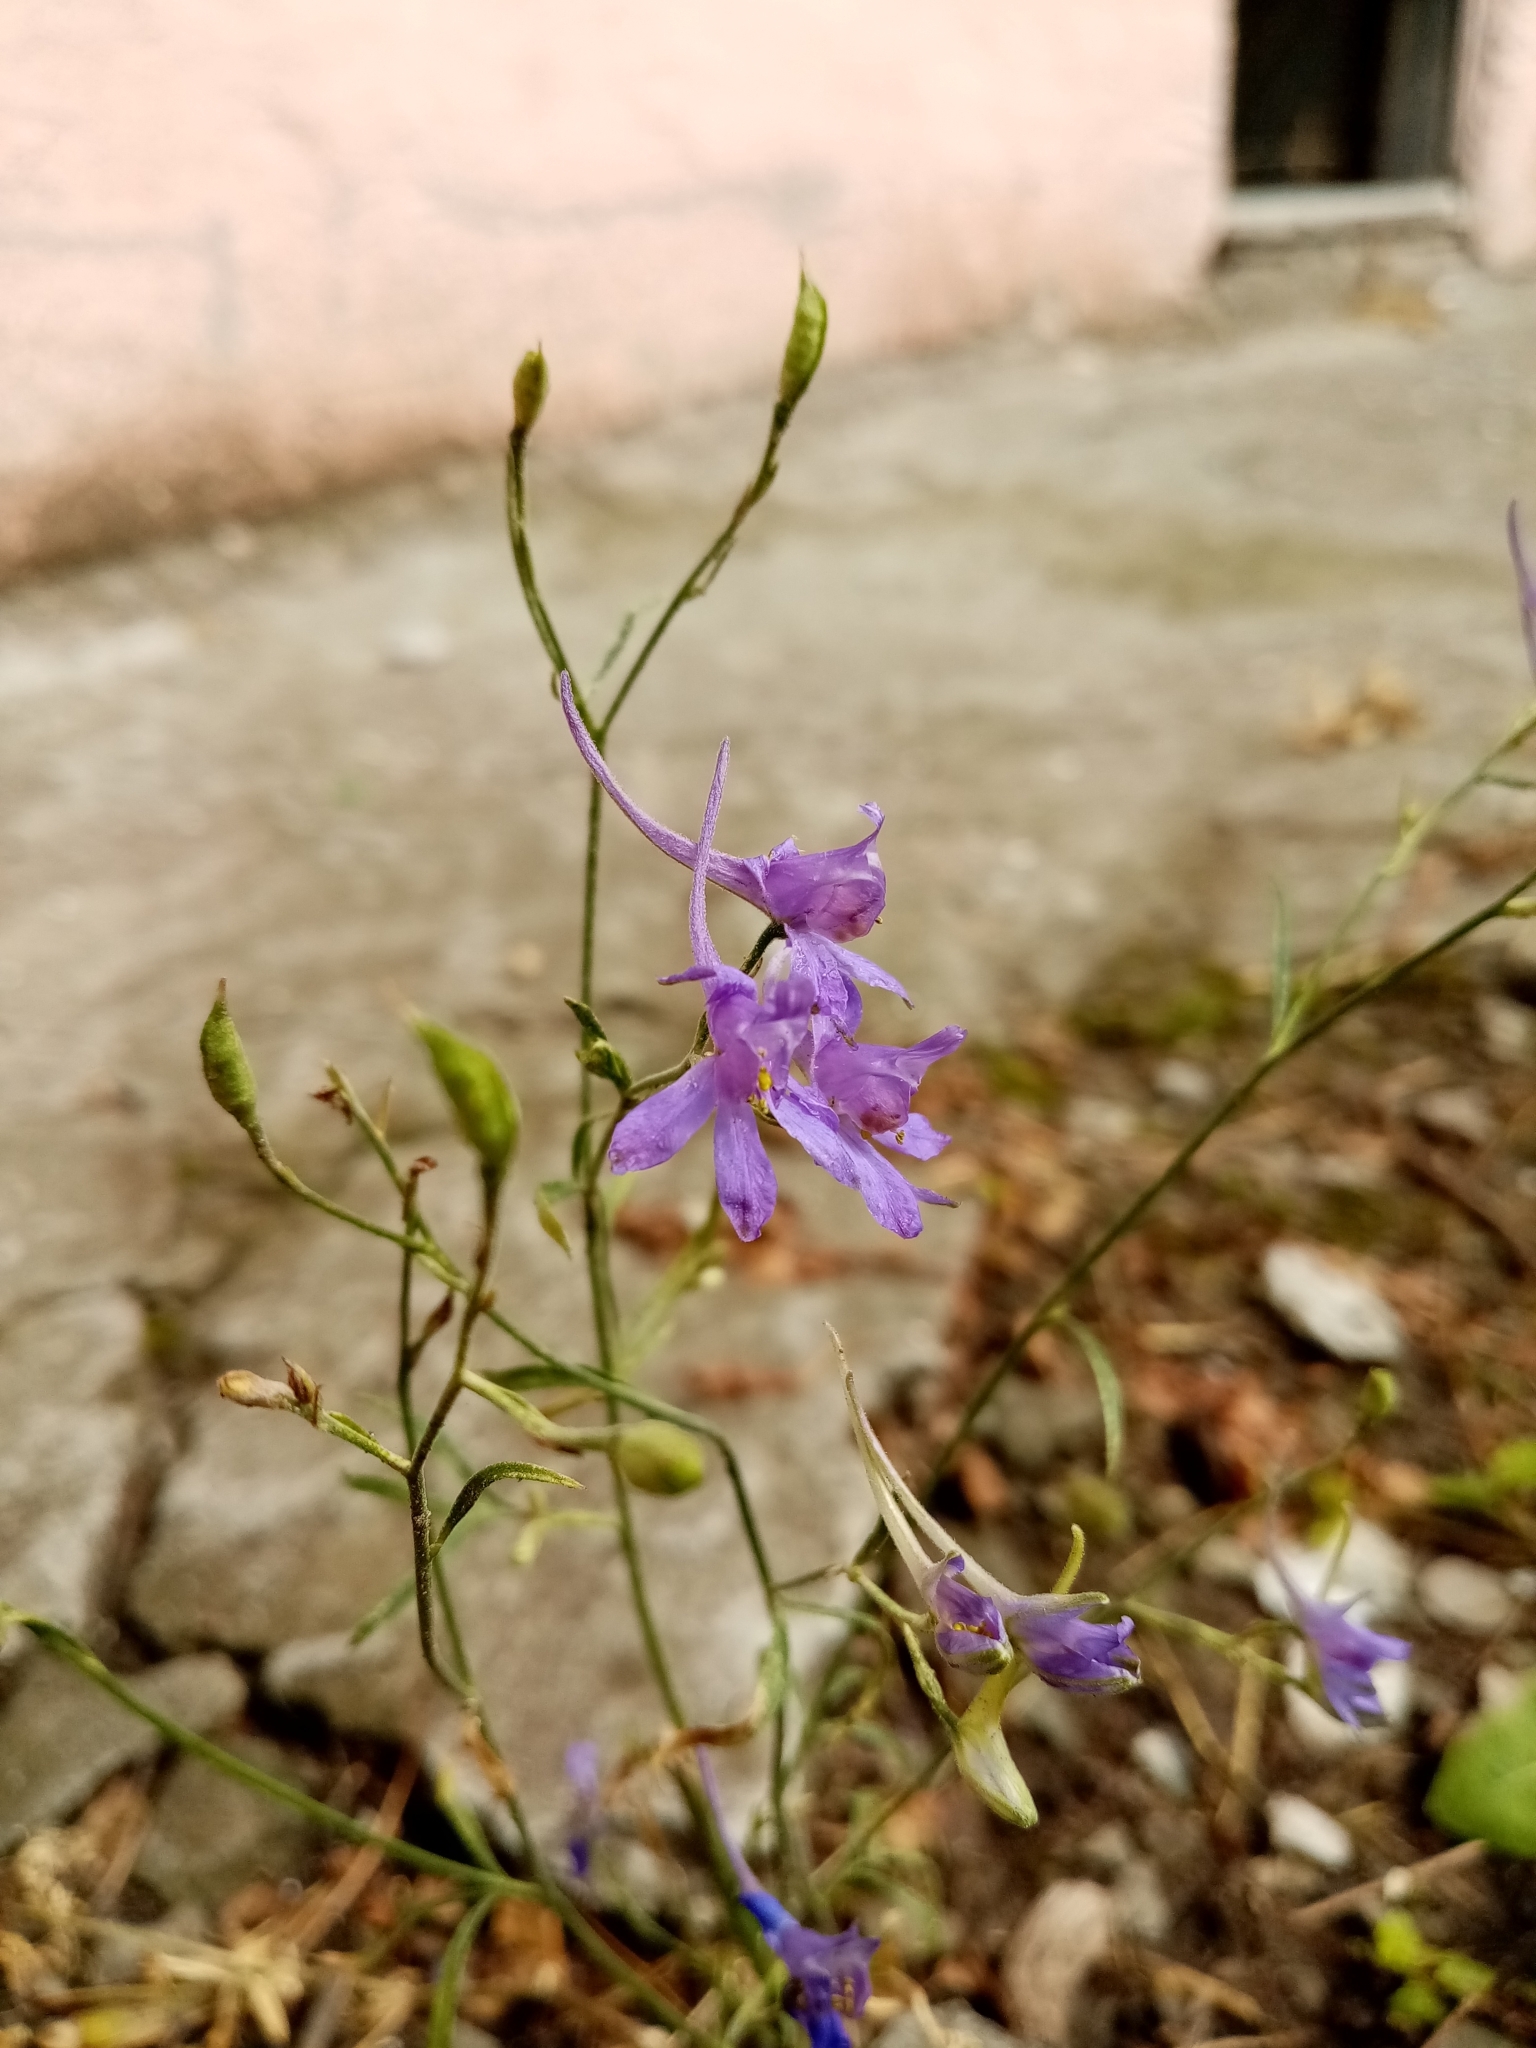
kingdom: Plantae
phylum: Tracheophyta
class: Magnoliopsida
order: Ranunculales
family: Ranunculaceae
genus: Delphinium
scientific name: Delphinium consolida
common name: Branching larkspur
